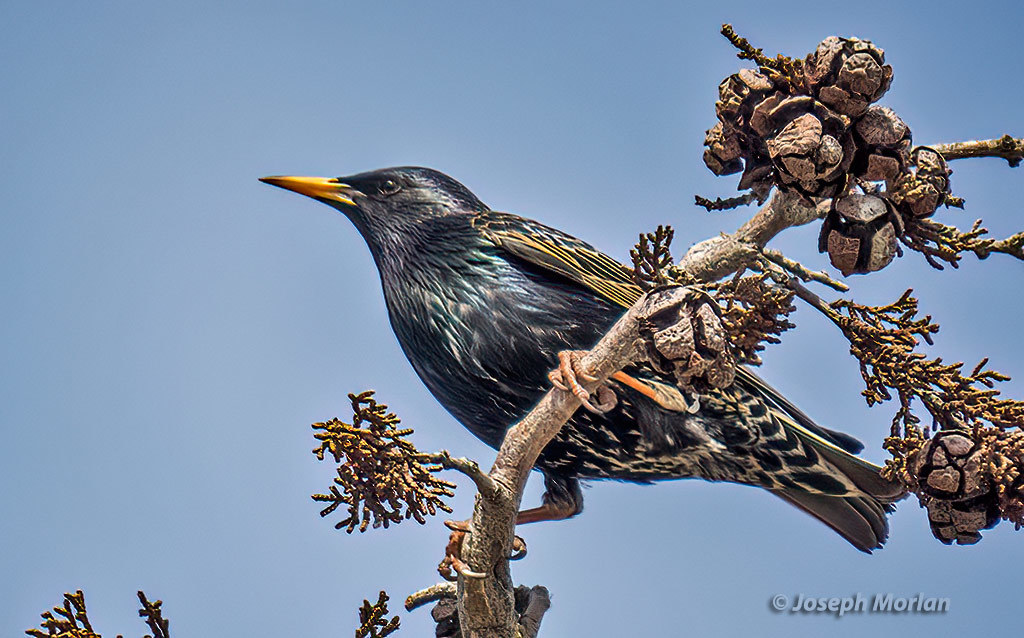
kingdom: Animalia
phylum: Chordata
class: Aves
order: Passeriformes
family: Sturnidae
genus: Sturnus
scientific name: Sturnus vulgaris
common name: Common starling
